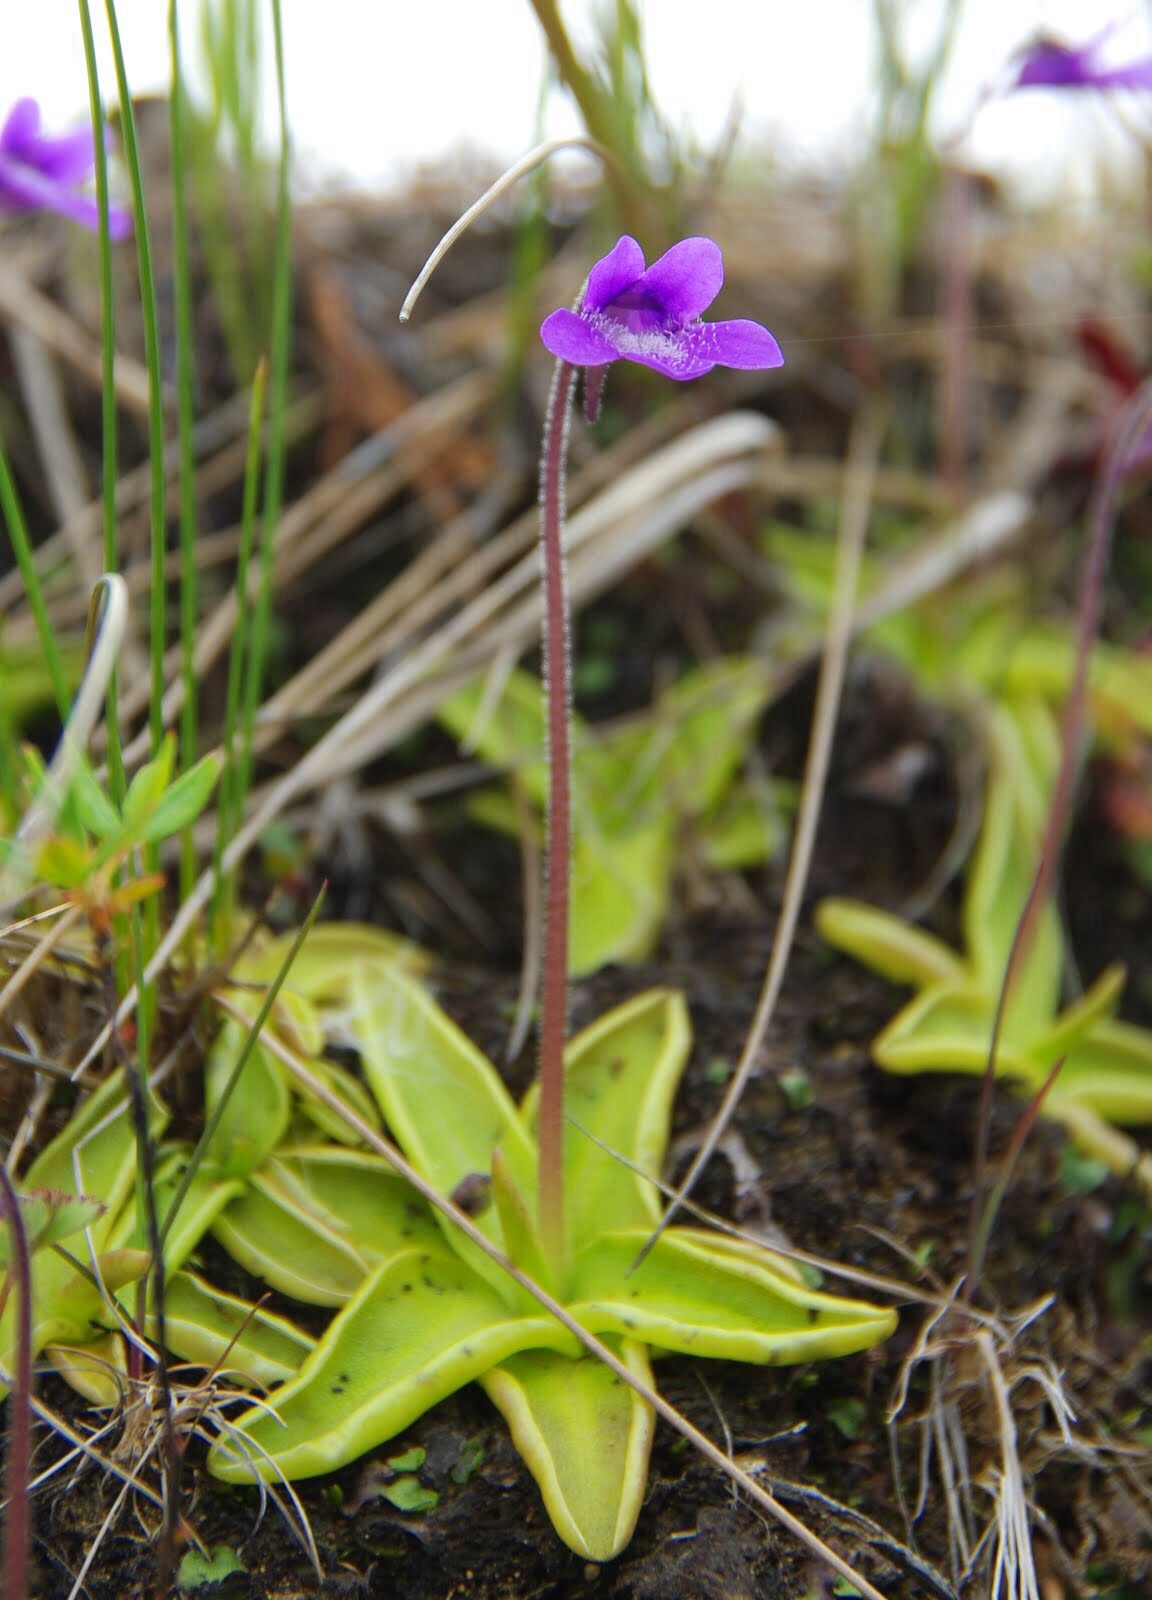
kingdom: Plantae
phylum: Tracheophyta
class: Magnoliopsida
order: Lamiales
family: Lentibulariaceae
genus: Pinguicula
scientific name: Pinguicula vulgaris
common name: Common butterwort
